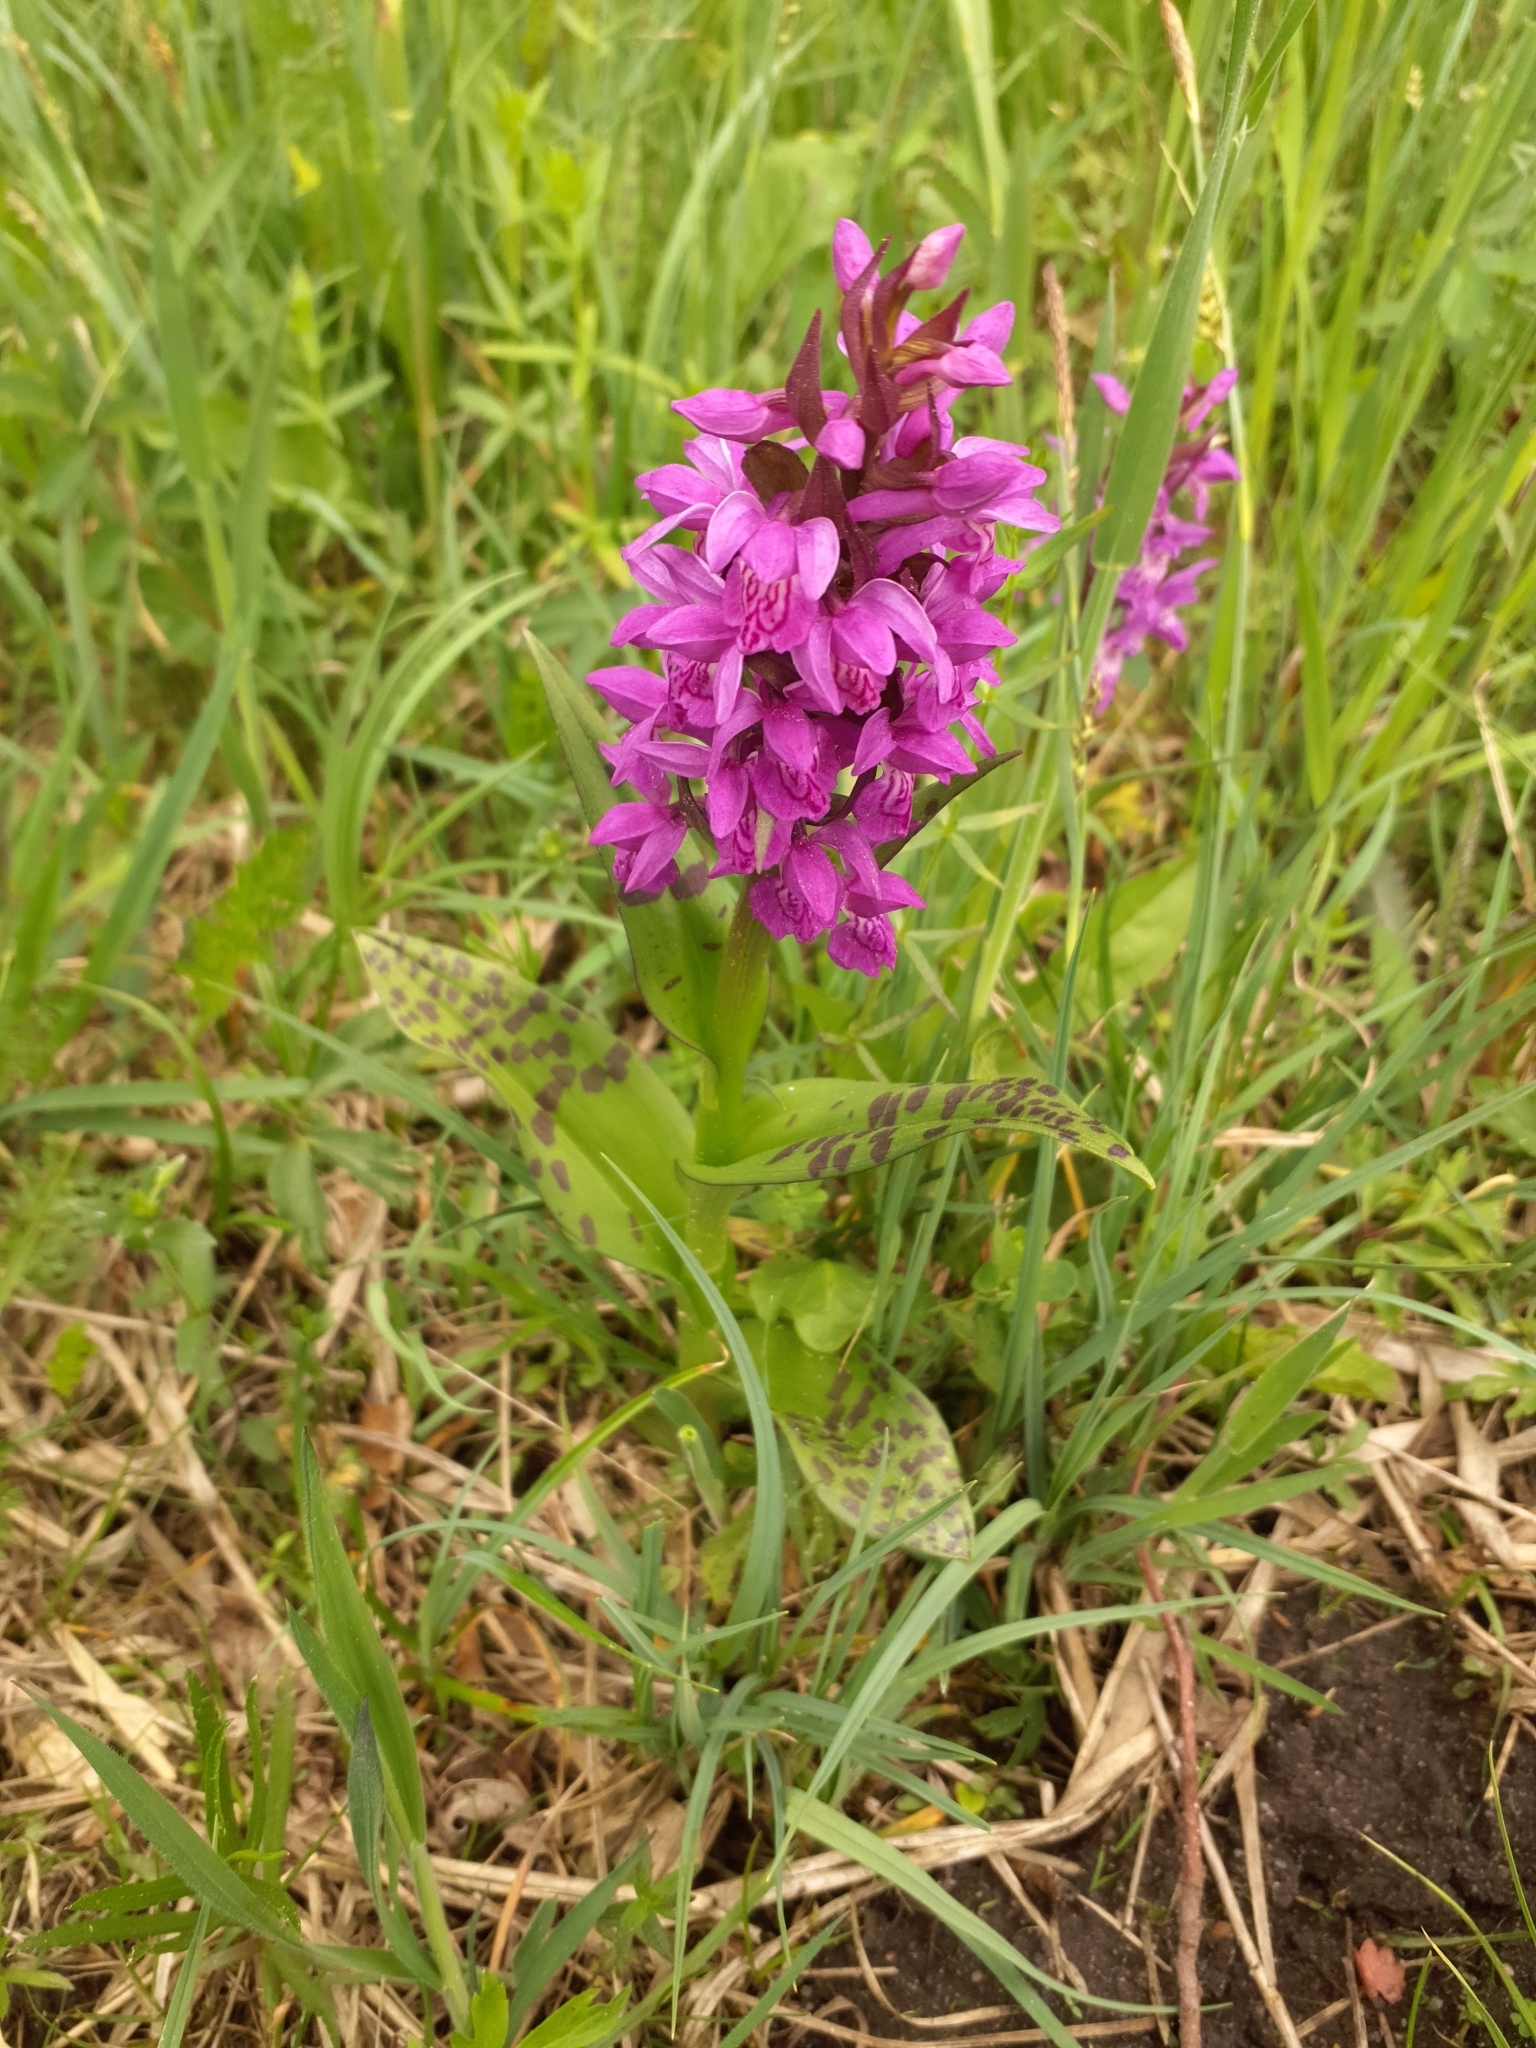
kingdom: Plantae
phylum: Tracheophyta
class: Liliopsida
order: Asparagales
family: Orchidaceae
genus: Dactylorhiza
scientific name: Dactylorhiza majalis
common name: Marsh orchid
